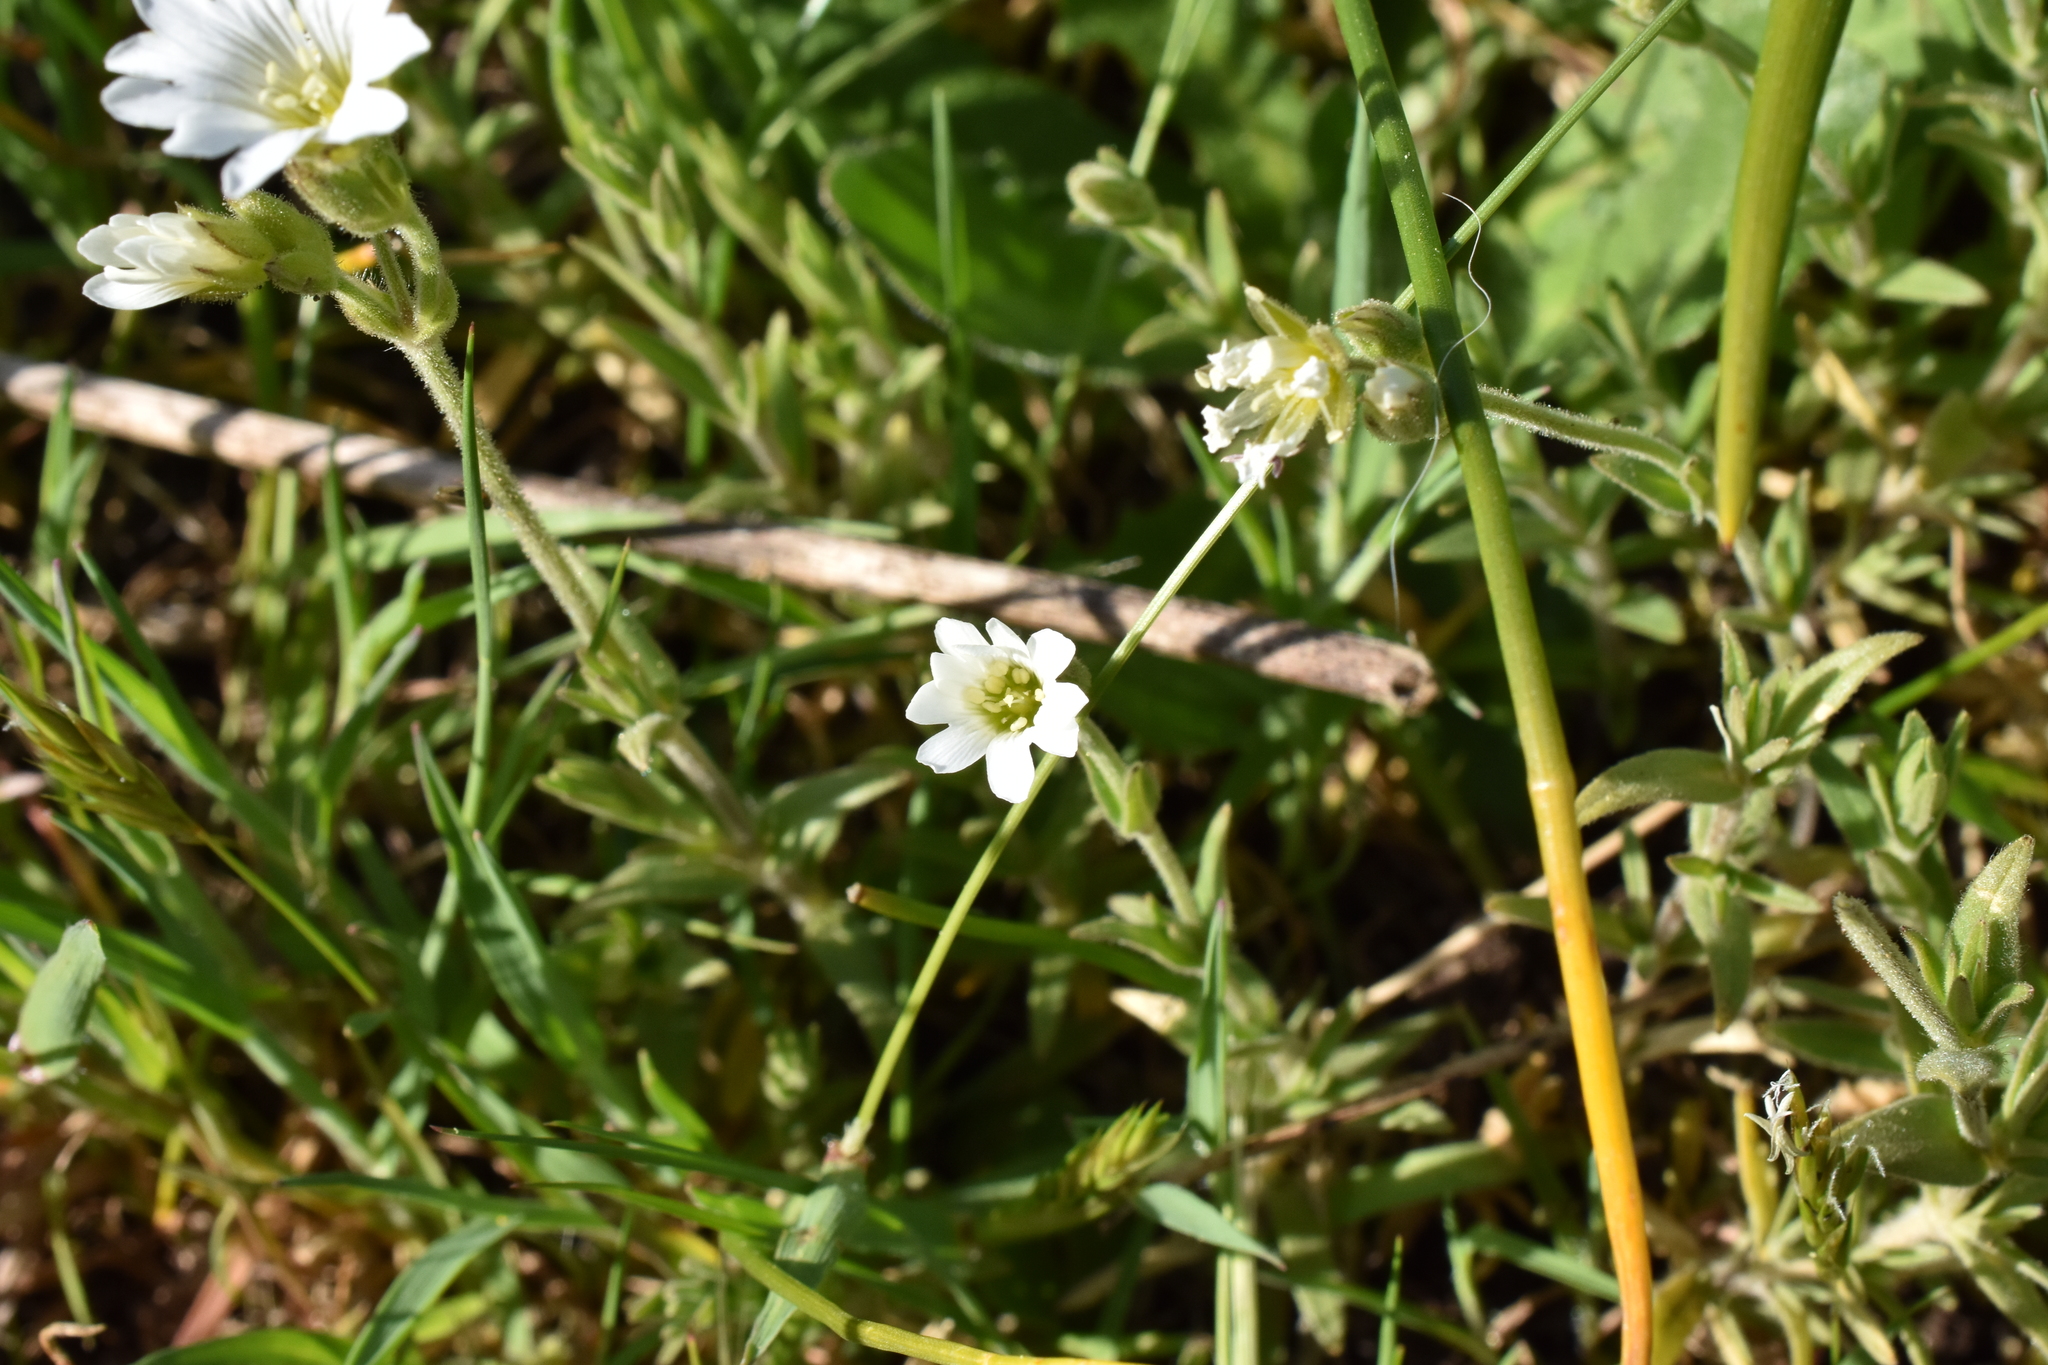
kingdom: Plantae
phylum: Tracheophyta
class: Magnoliopsida
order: Caryophyllales
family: Caryophyllaceae
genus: Cerastium
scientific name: Cerastium arvense
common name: Field mouse-ear
